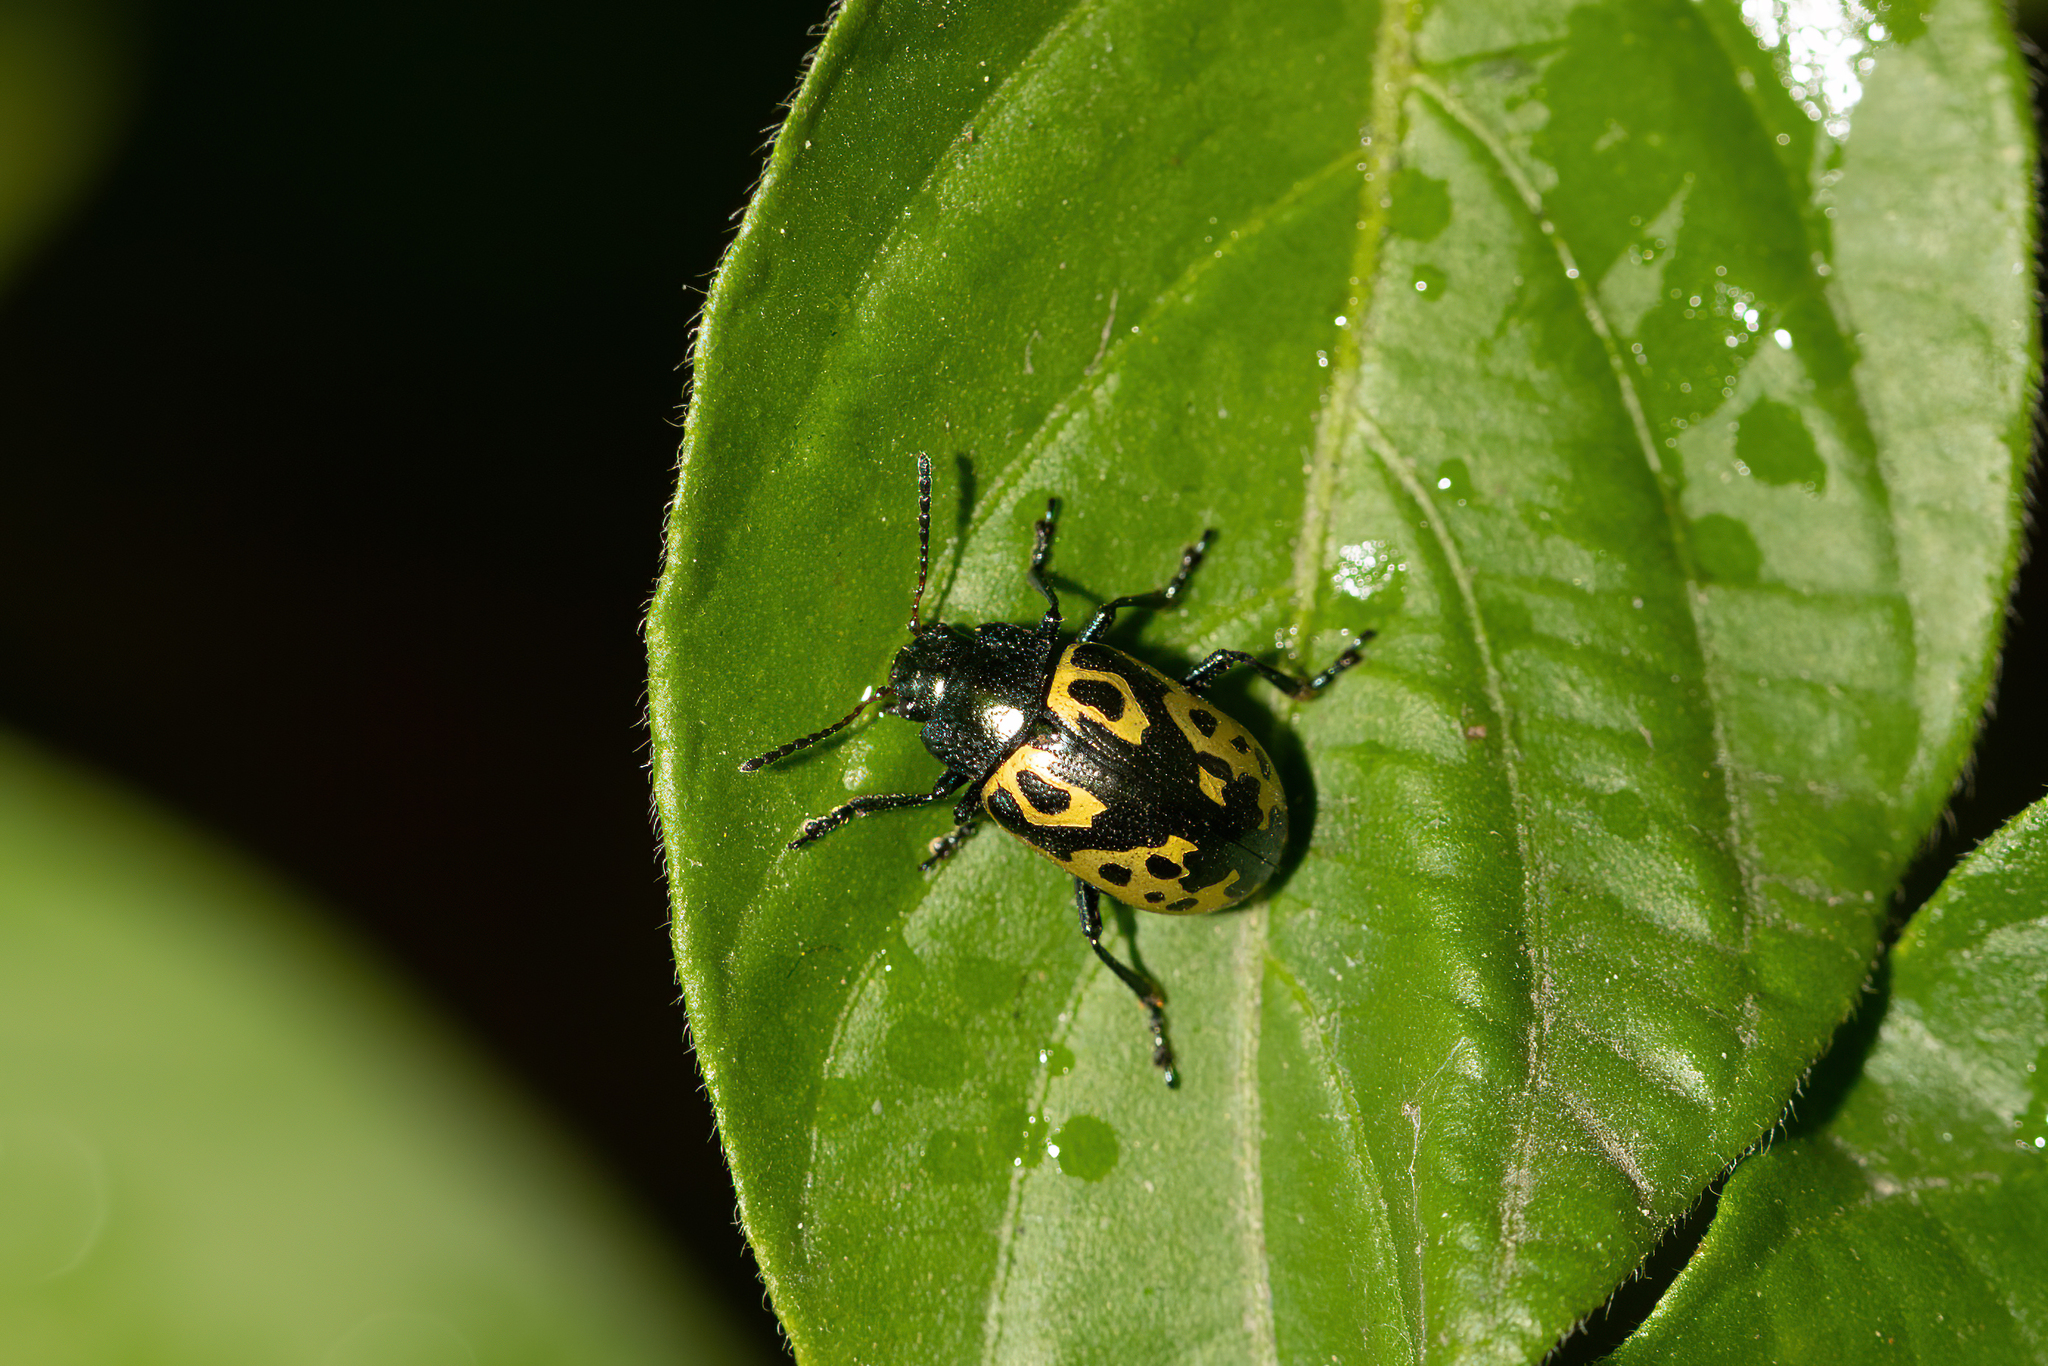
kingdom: Animalia
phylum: Arthropoda
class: Insecta
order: Coleoptera
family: Chrysomelidae
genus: Calligrapha
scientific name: Calligrapha
